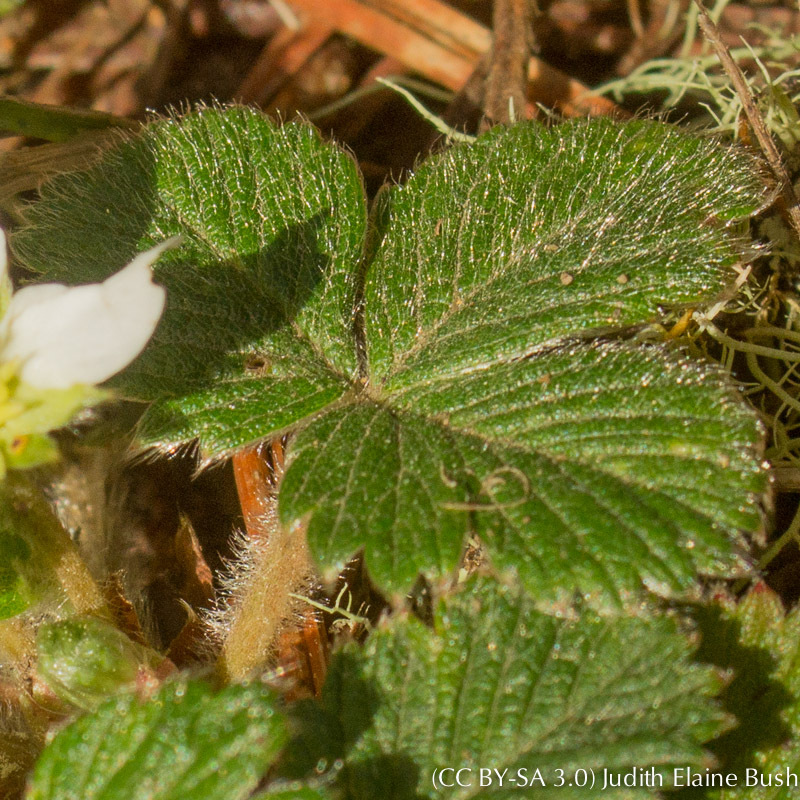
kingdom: Plantae
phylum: Tracheophyta
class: Magnoliopsida
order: Rosales
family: Rosaceae
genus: Fragaria
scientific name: Fragaria chiloensis
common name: Beach strawberry
